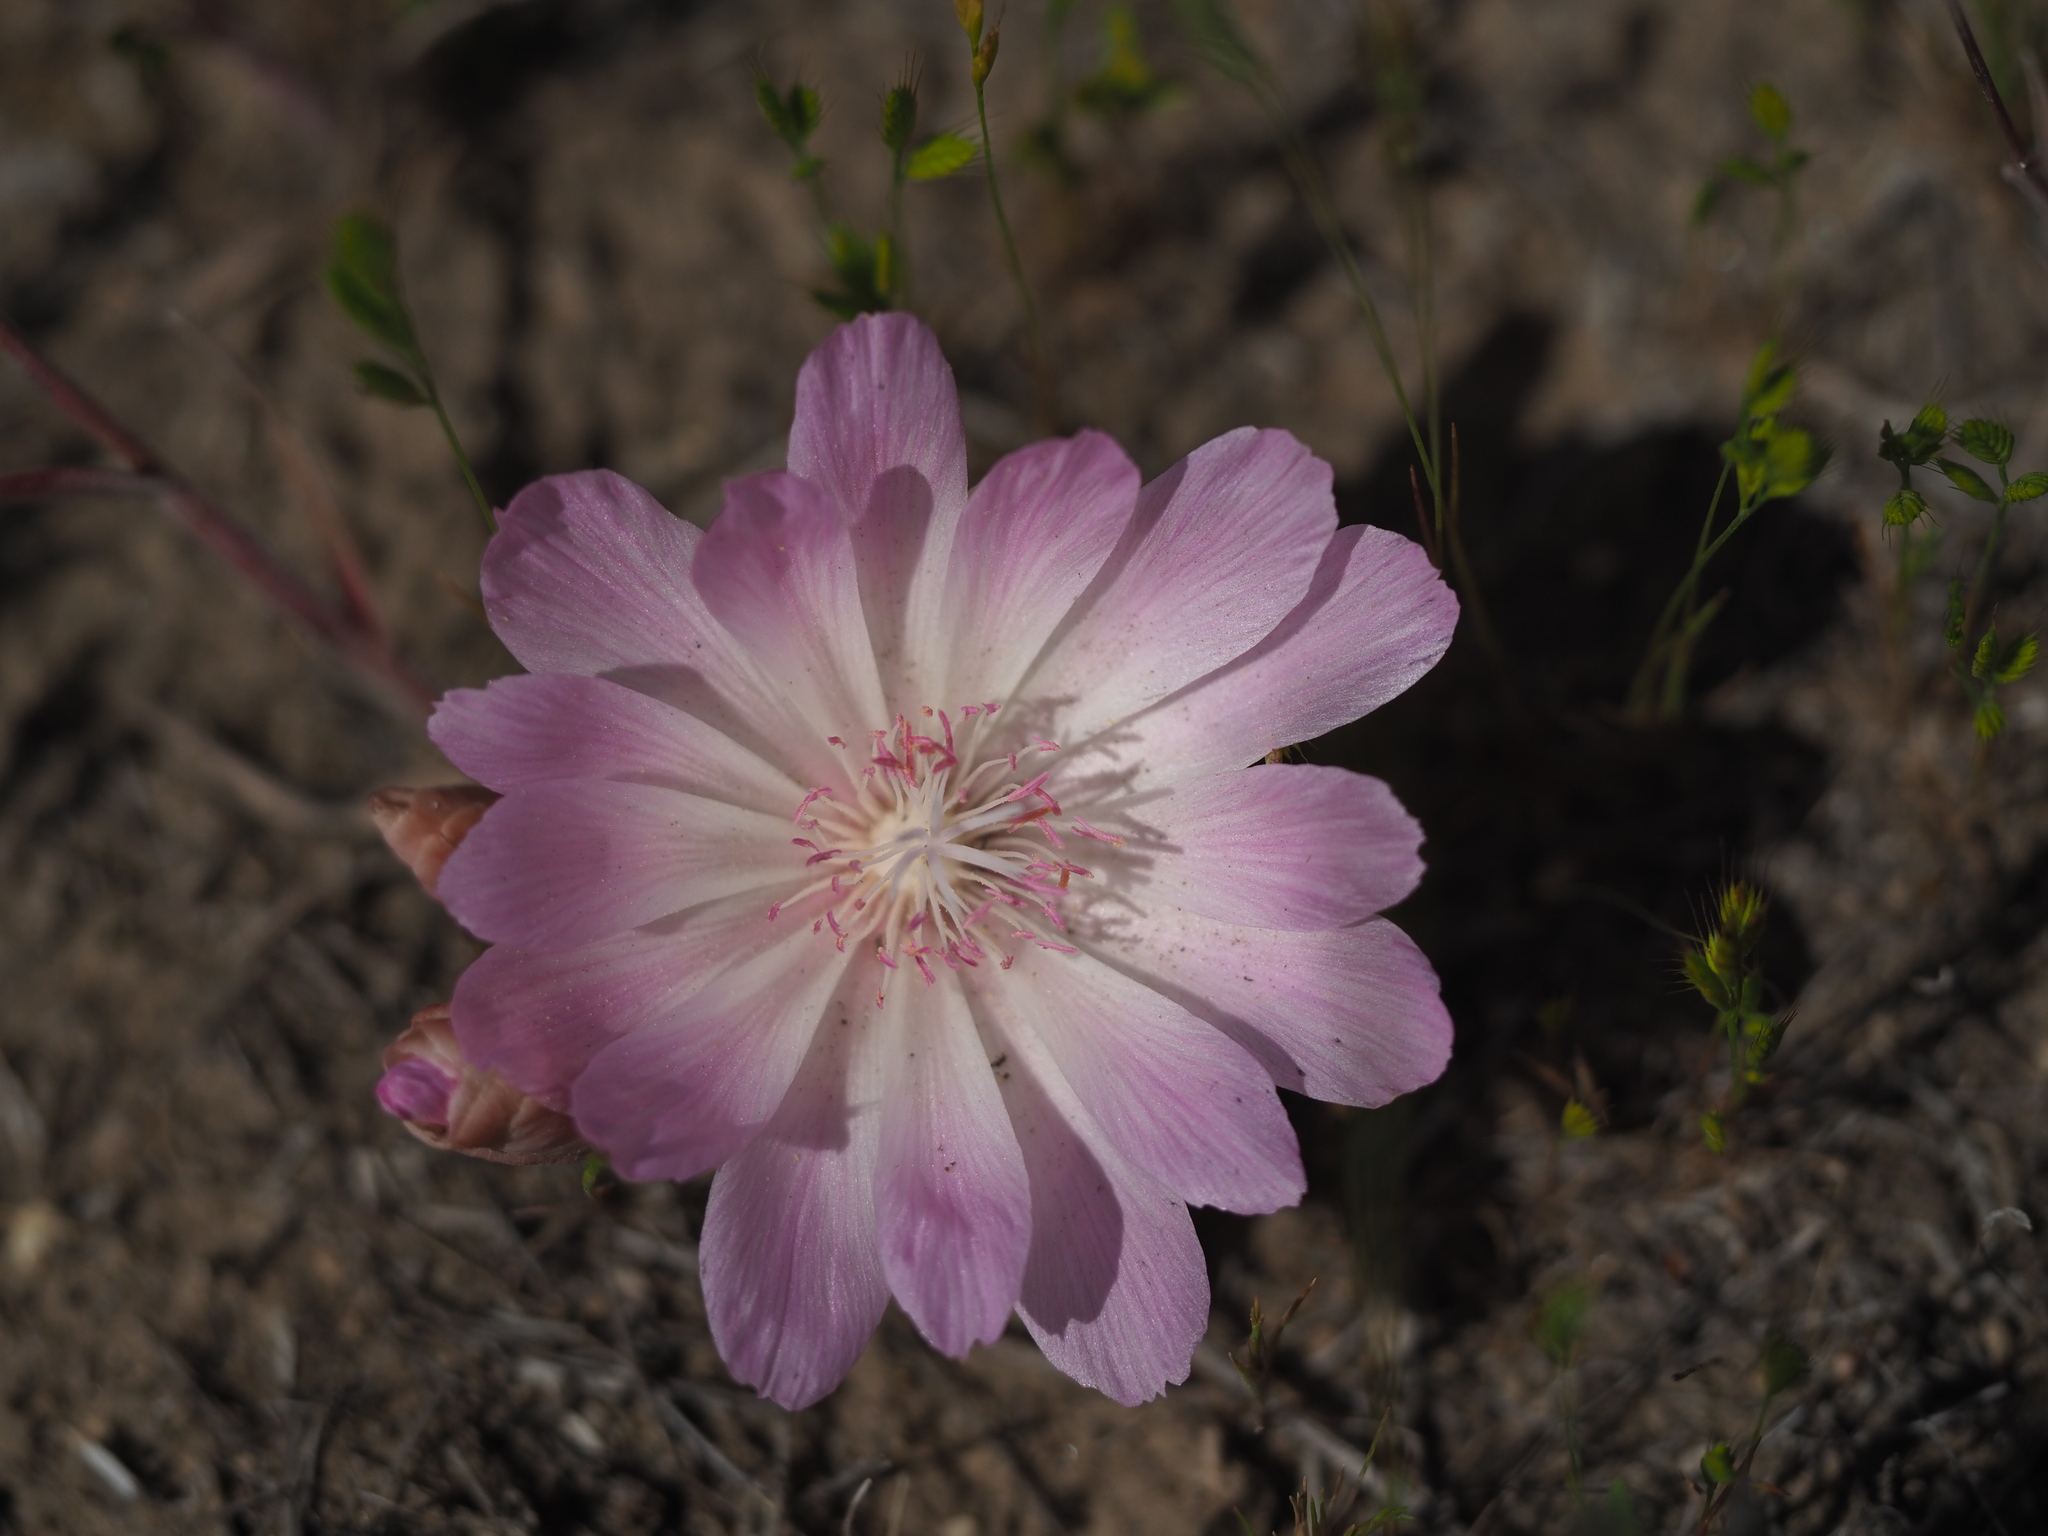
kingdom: Plantae
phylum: Tracheophyta
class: Magnoliopsida
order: Caryophyllales
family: Montiaceae
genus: Lewisia
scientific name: Lewisia rediviva
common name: Bitter-root
